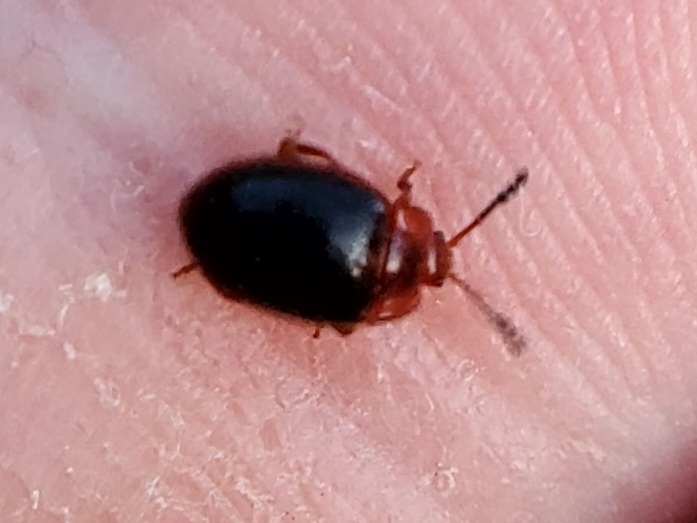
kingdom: Animalia
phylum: Arthropoda
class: Insecta
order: Coleoptera
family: Endomychidae
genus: Stenotarsus
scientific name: Stenotarsus hispidus
